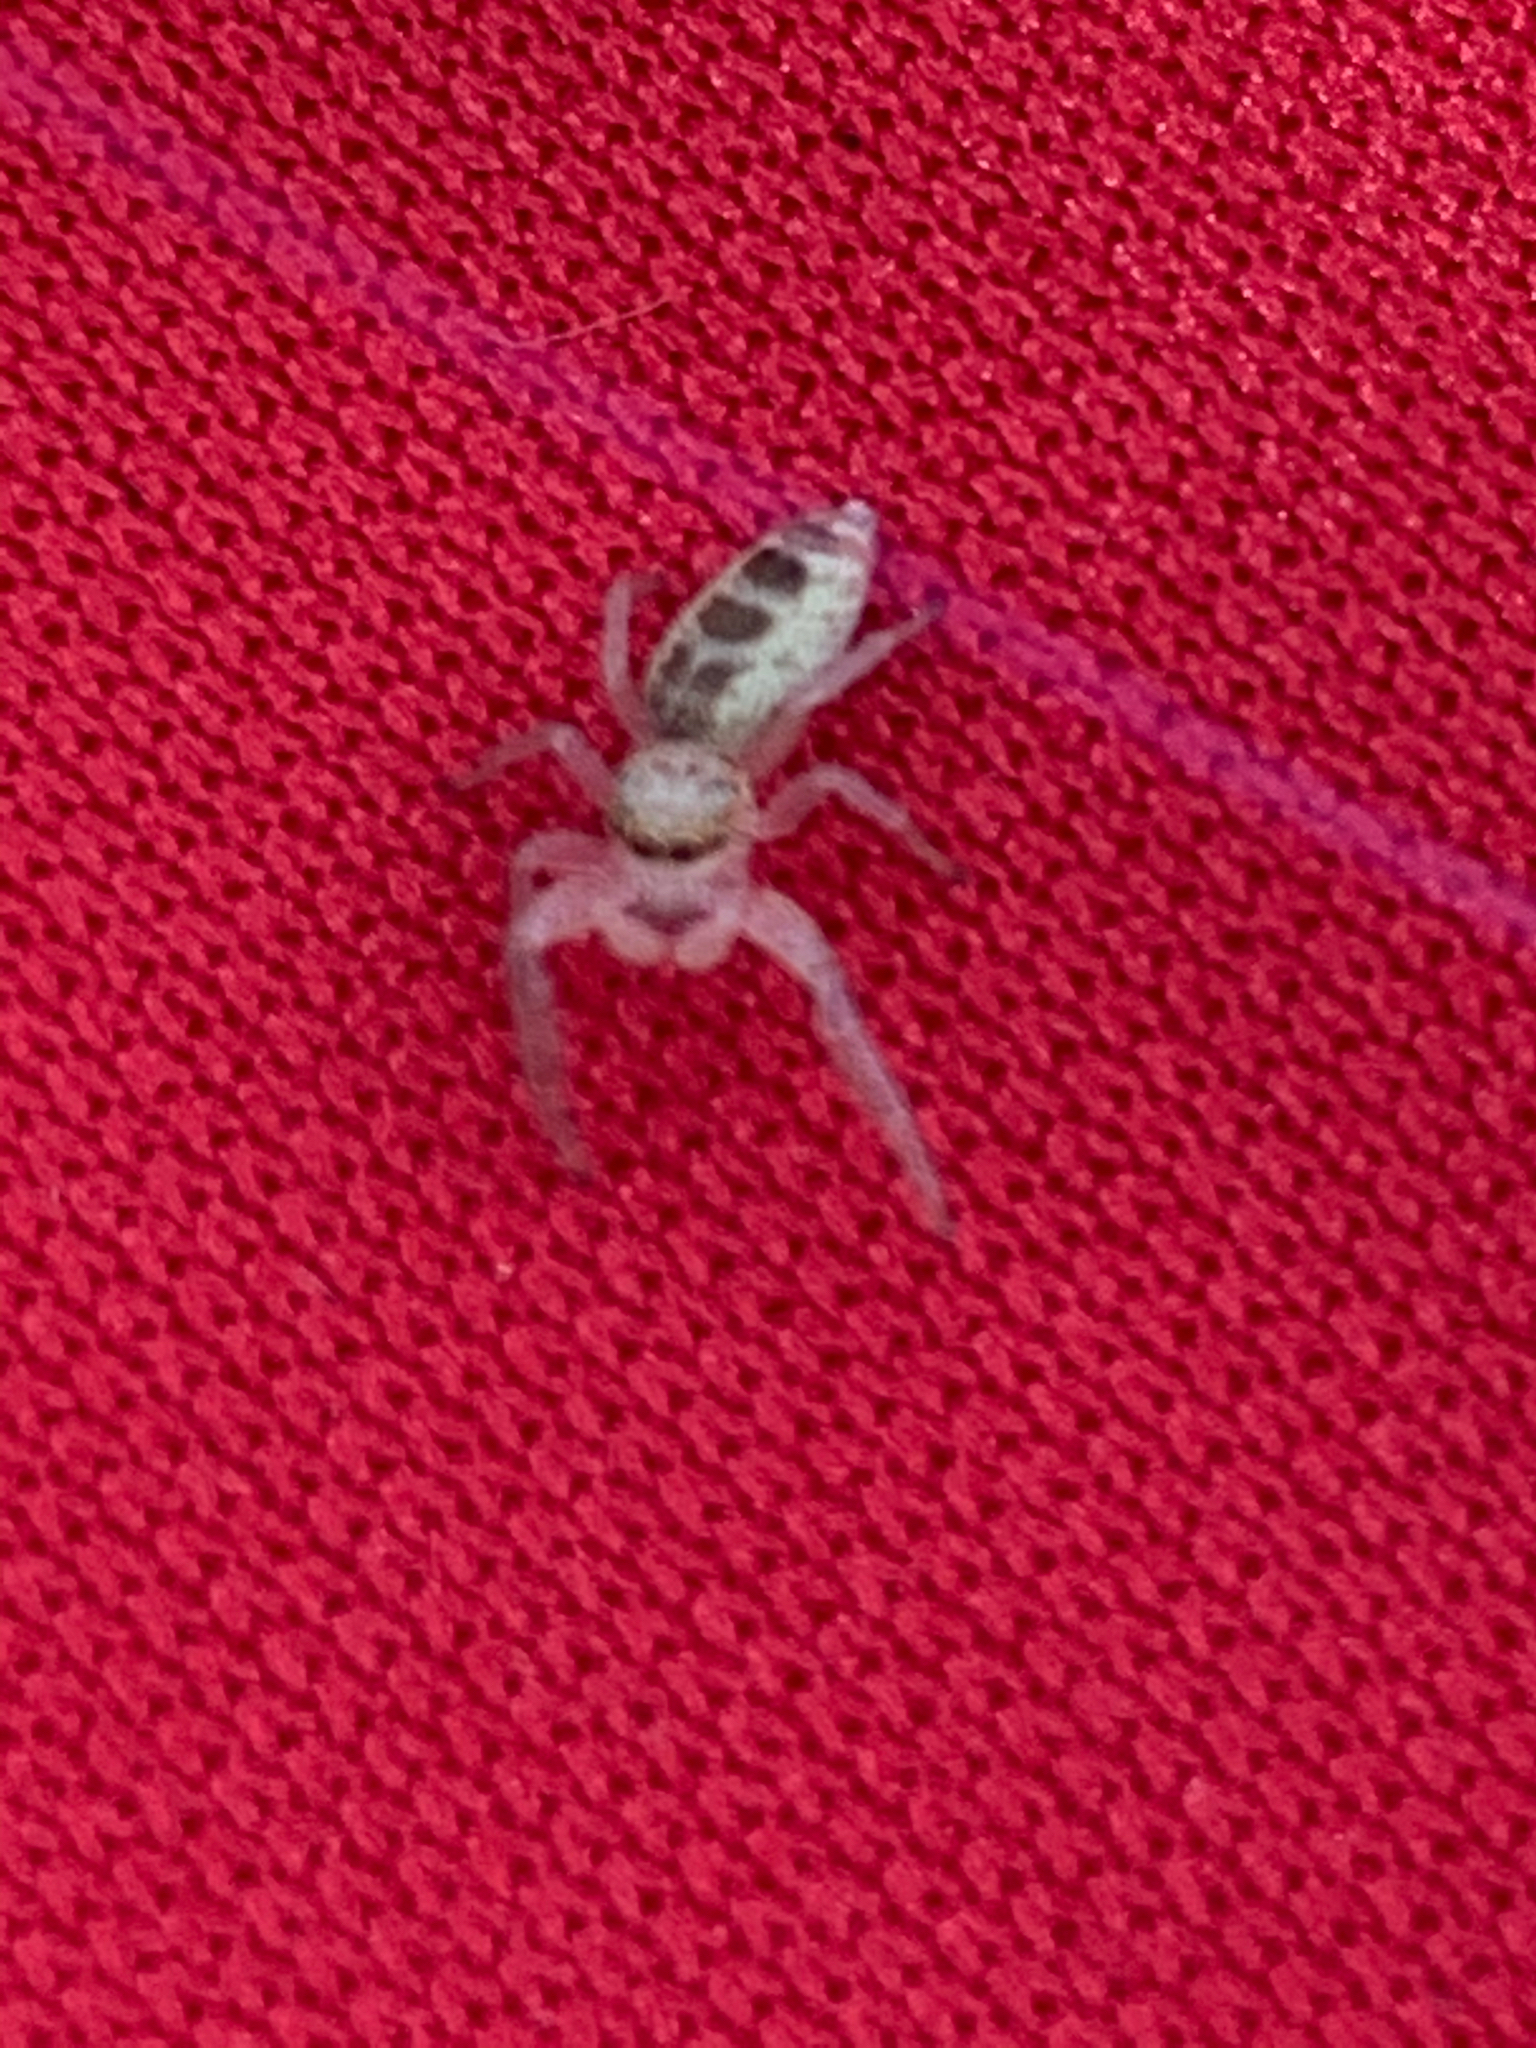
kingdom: Animalia
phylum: Arthropoda
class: Arachnida
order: Araneae
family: Salticidae
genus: Hentzia
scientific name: Hentzia mitrata
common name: White-jawed jumping spider
